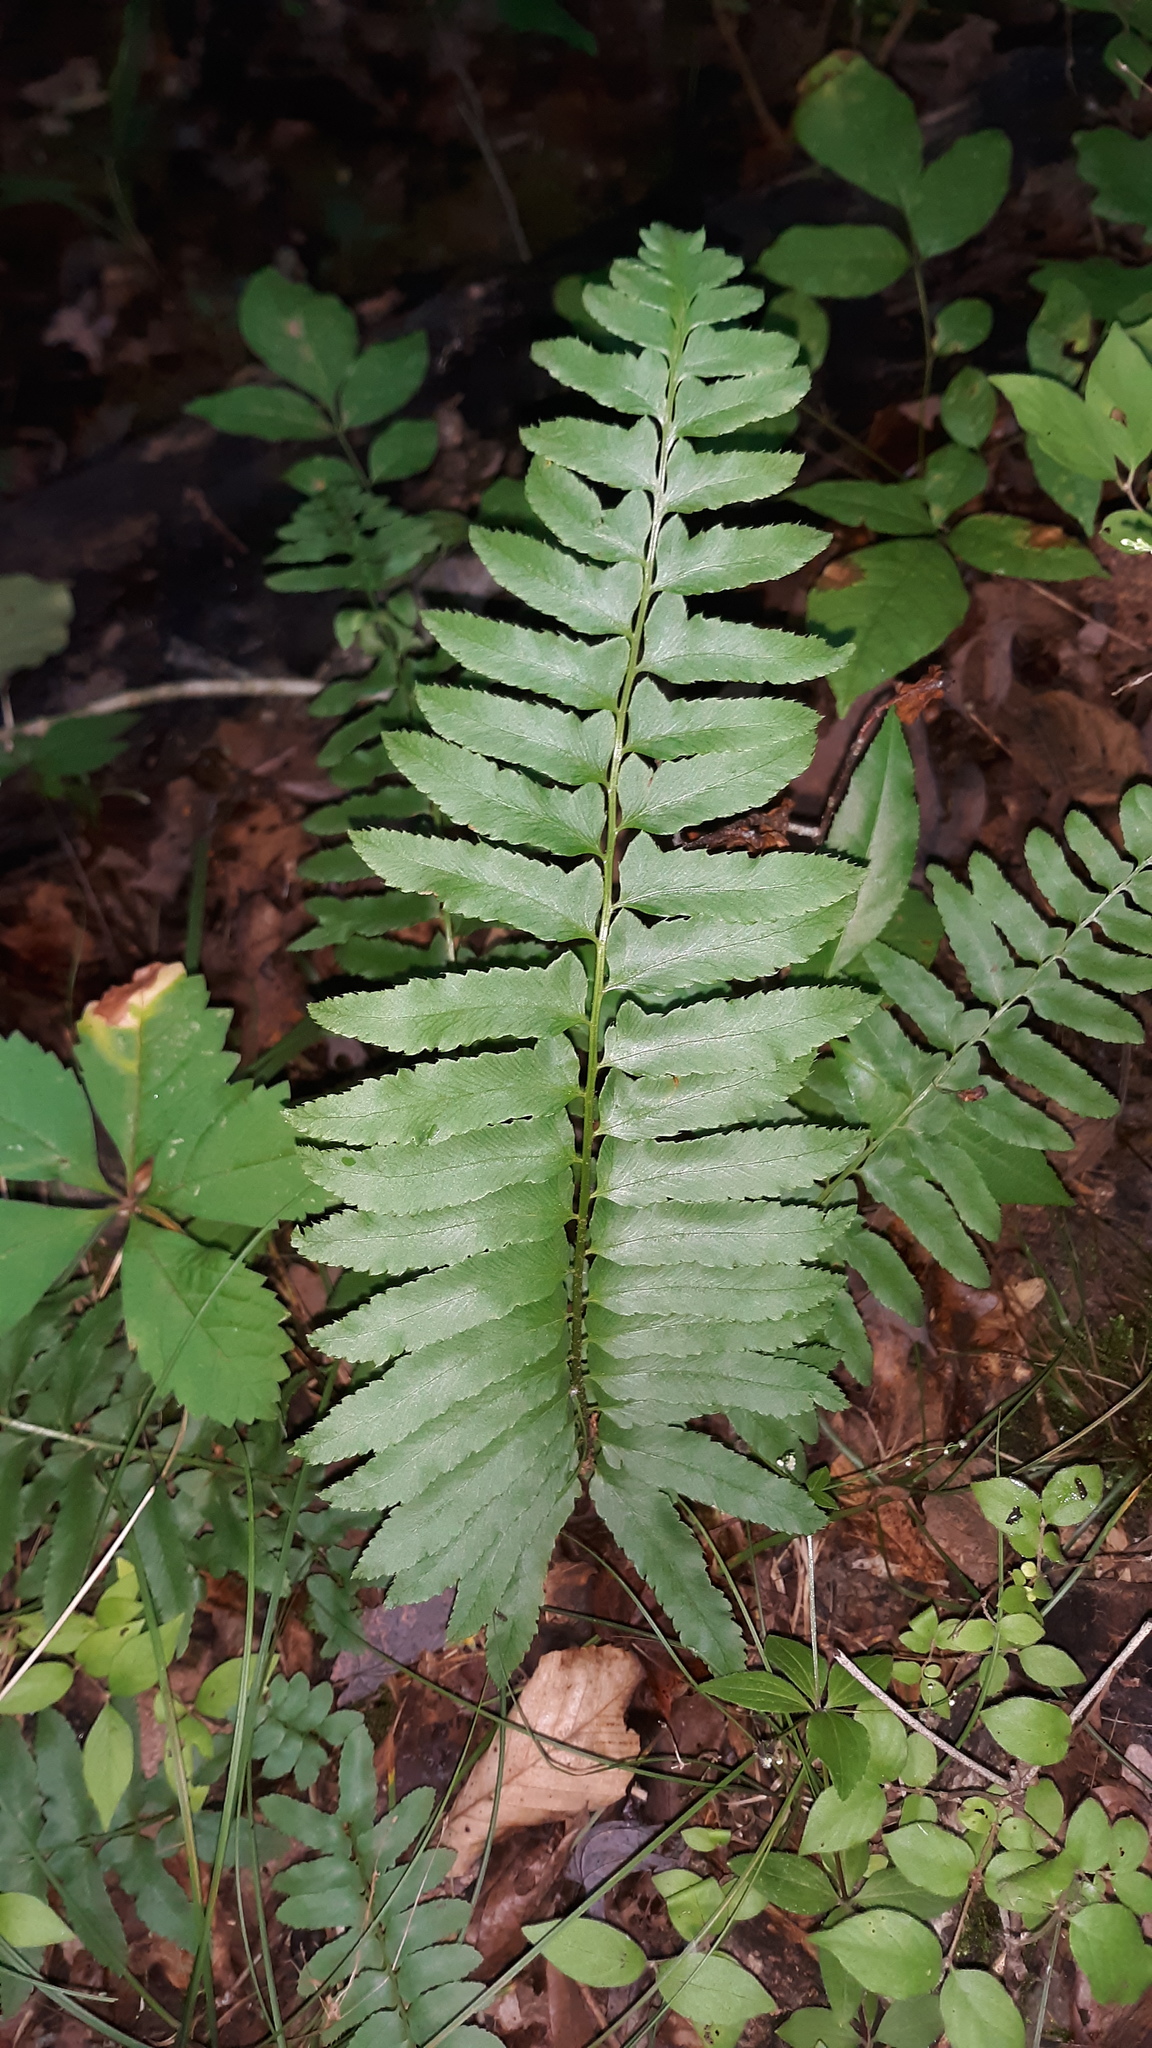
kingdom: Plantae
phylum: Tracheophyta
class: Polypodiopsida
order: Polypodiales
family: Dryopteridaceae
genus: Polystichum
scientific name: Polystichum acrostichoides
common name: Christmas fern
